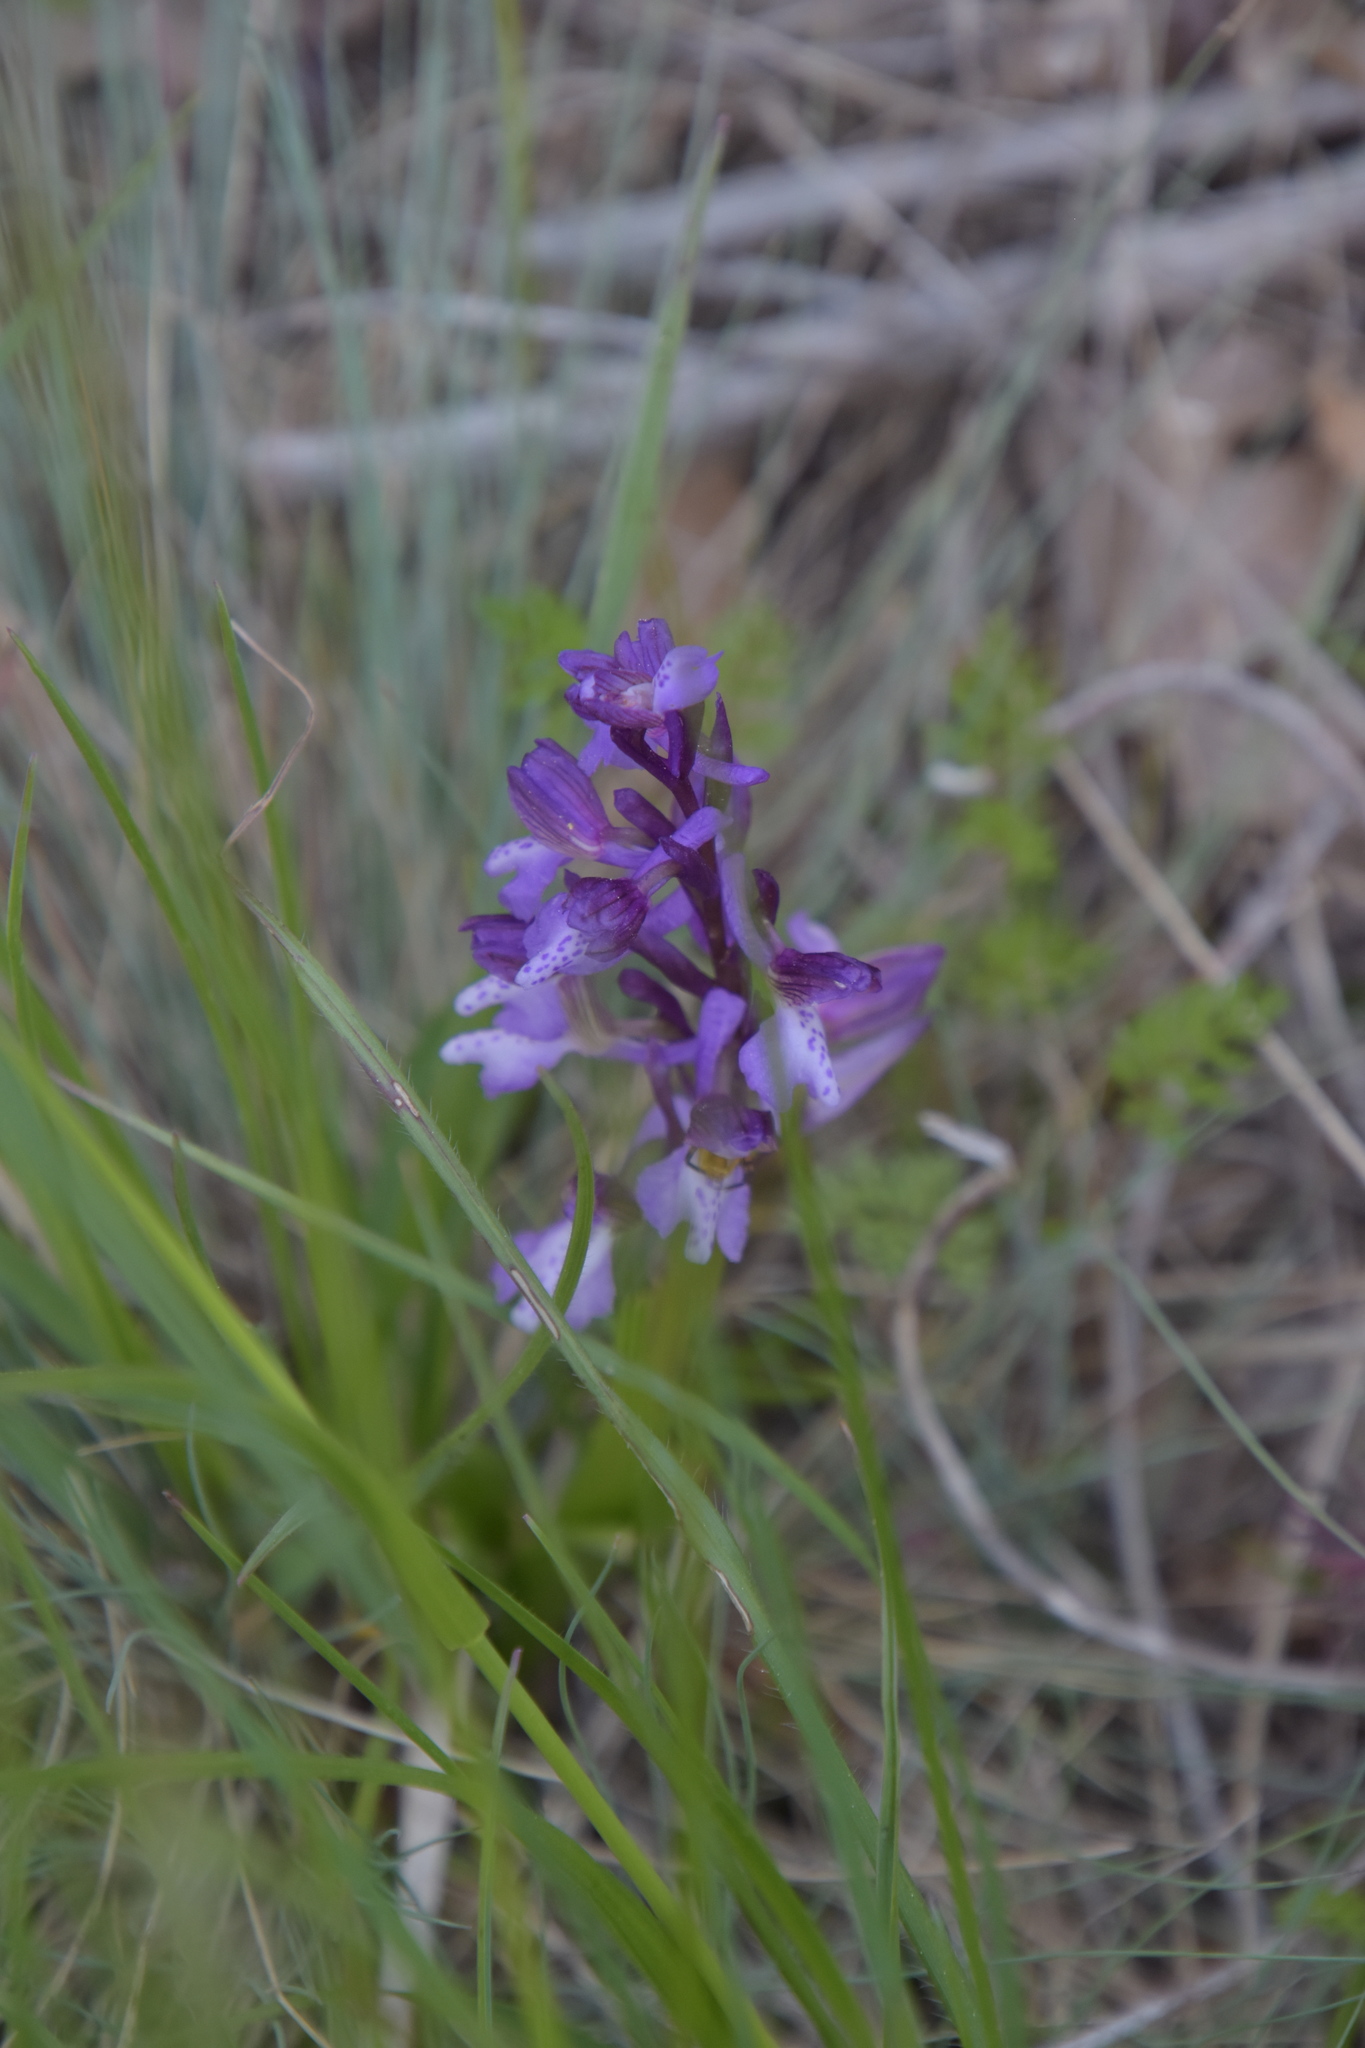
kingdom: Plantae
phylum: Tracheophyta
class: Liliopsida
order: Asparagales
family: Orchidaceae
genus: Anacamptis
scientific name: Anacamptis morio
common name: Green-winged orchid
